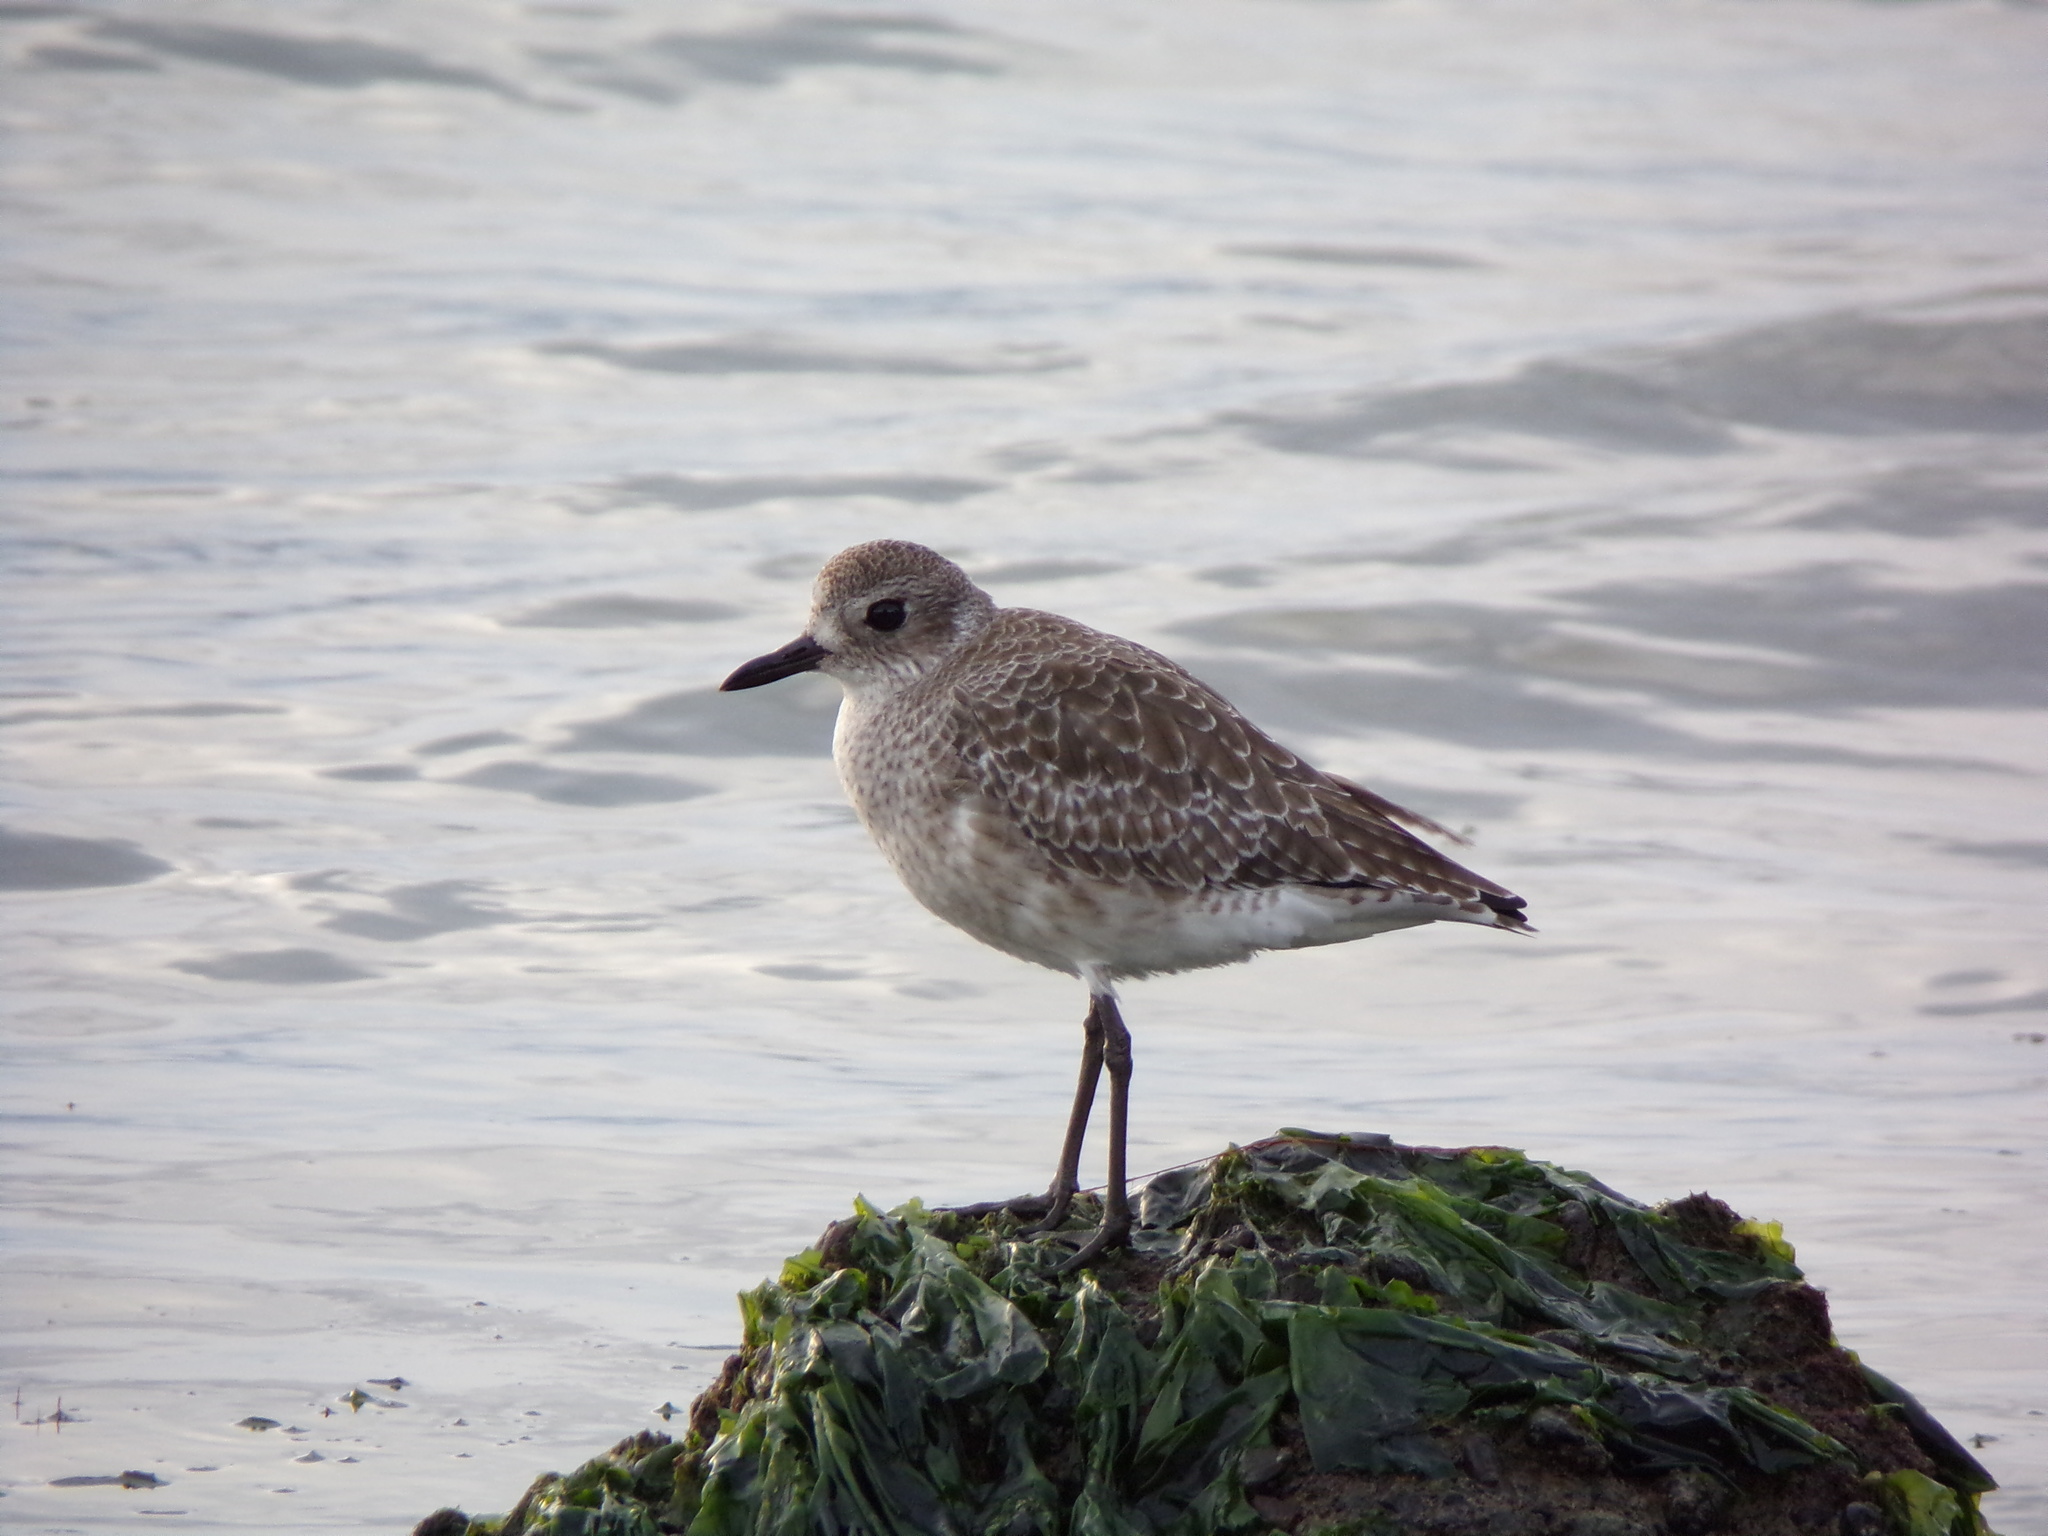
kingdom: Animalia
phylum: Chordata
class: Aves
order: Charadriiformes
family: Charadriidae
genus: Pluvialis
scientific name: Pluvialis squatarola
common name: Grey plover
